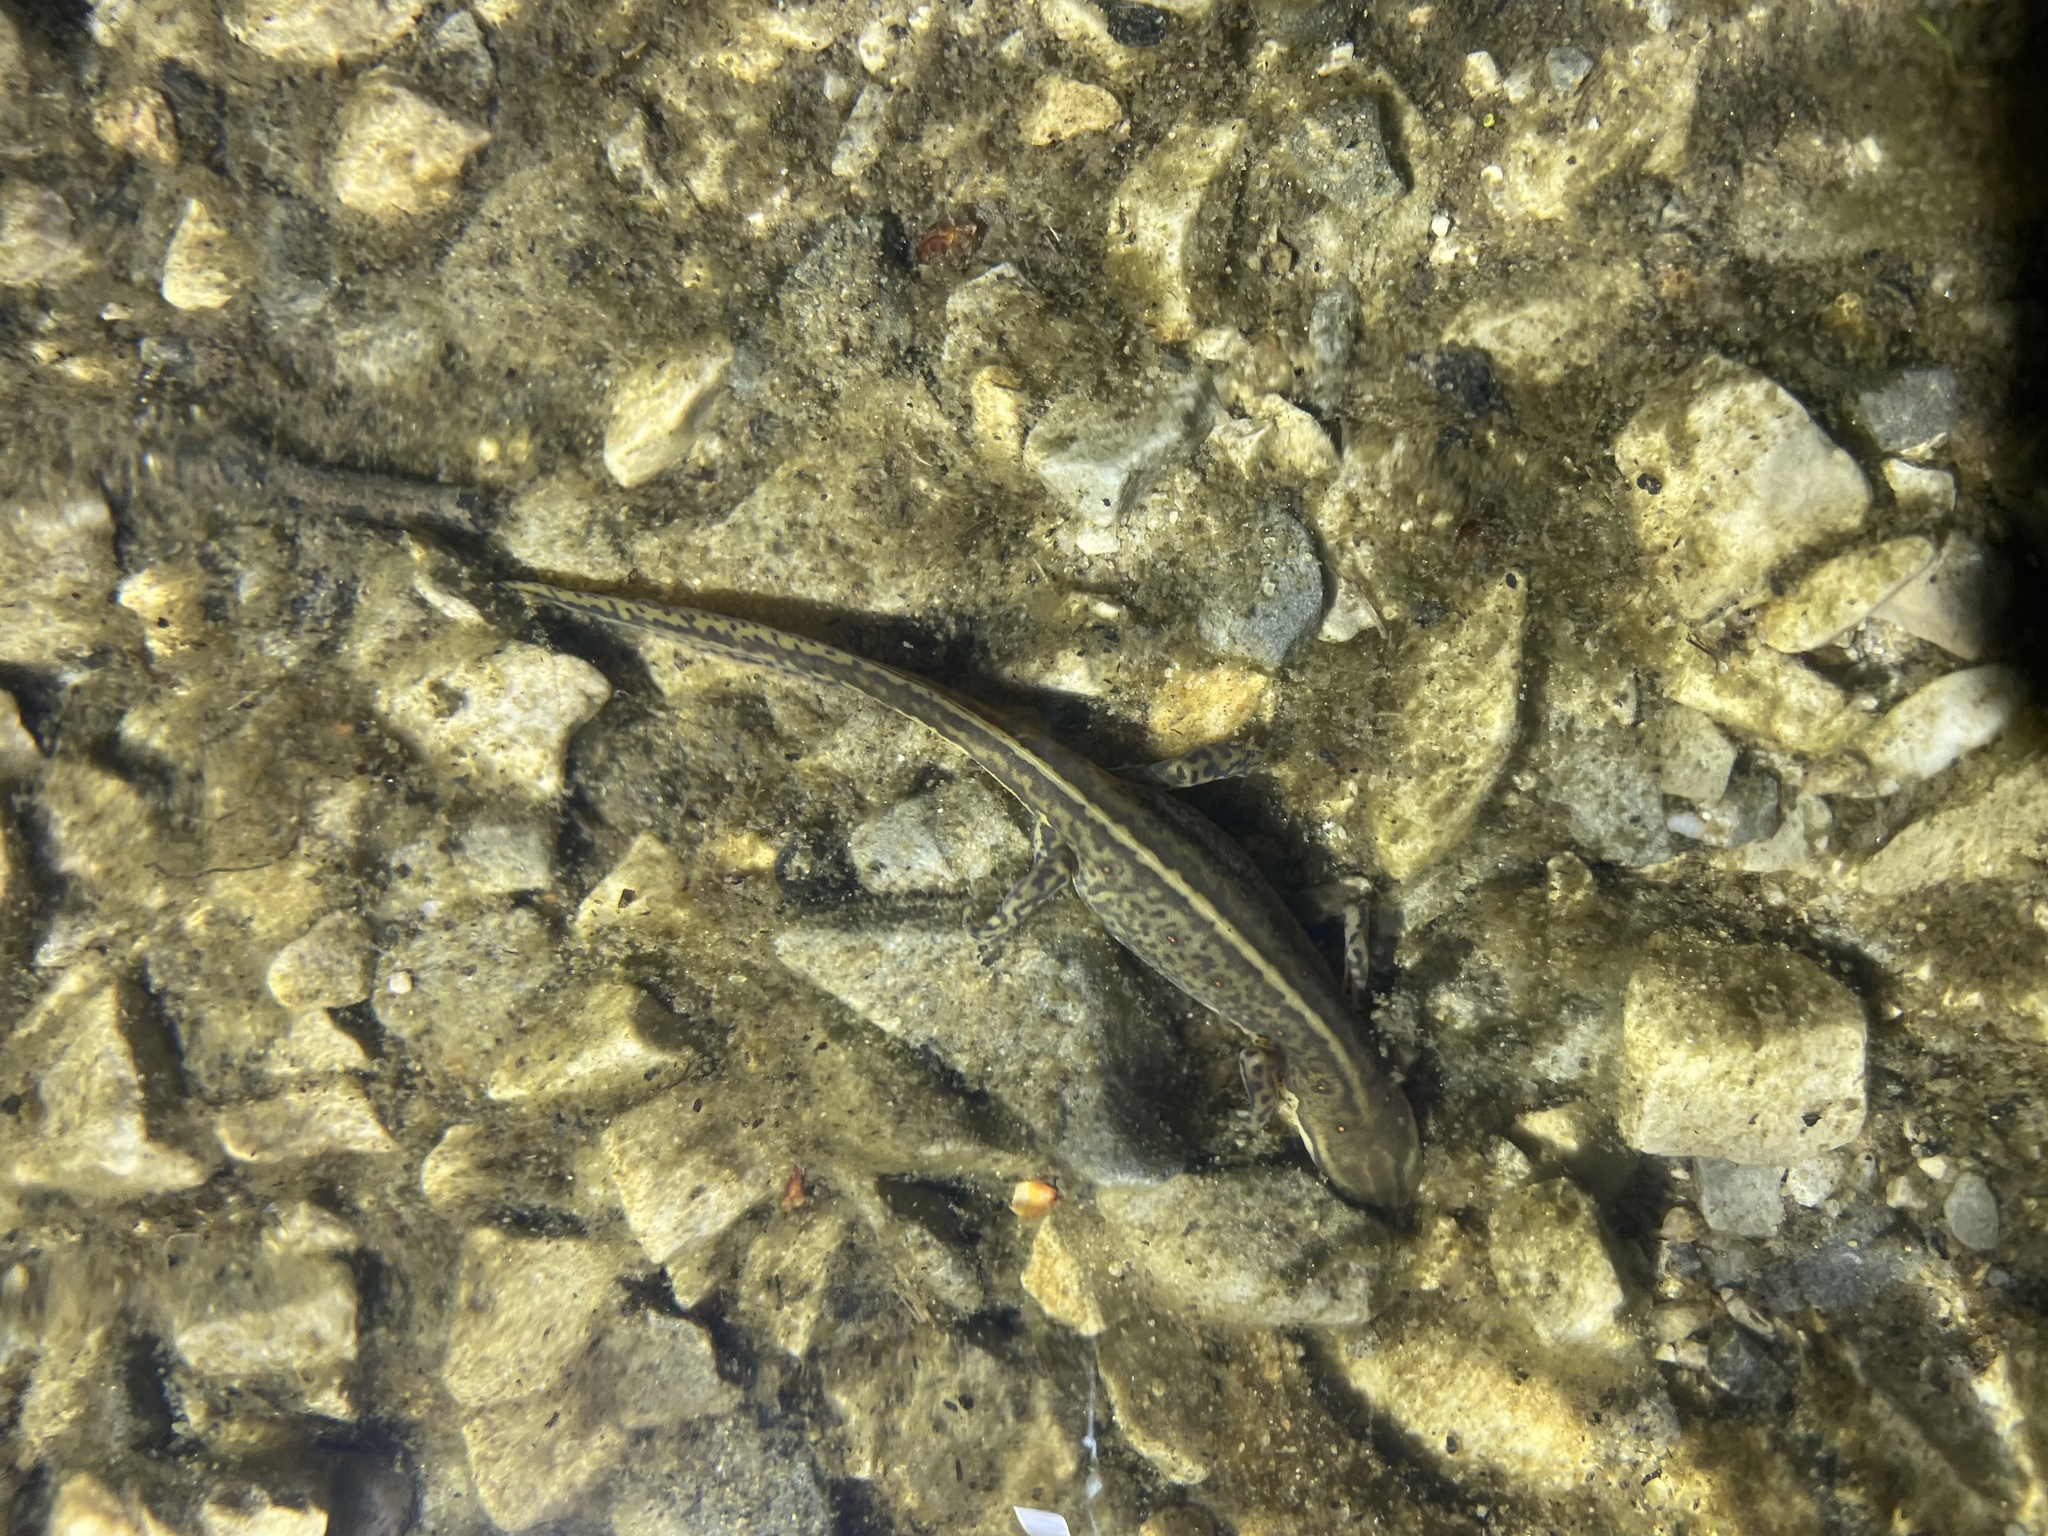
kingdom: Animalia
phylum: Chordata
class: Amphibia
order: Caudata
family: Salamandridae
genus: Notophthalmus
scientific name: Notophthalmus viridescens
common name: Eastern newt
